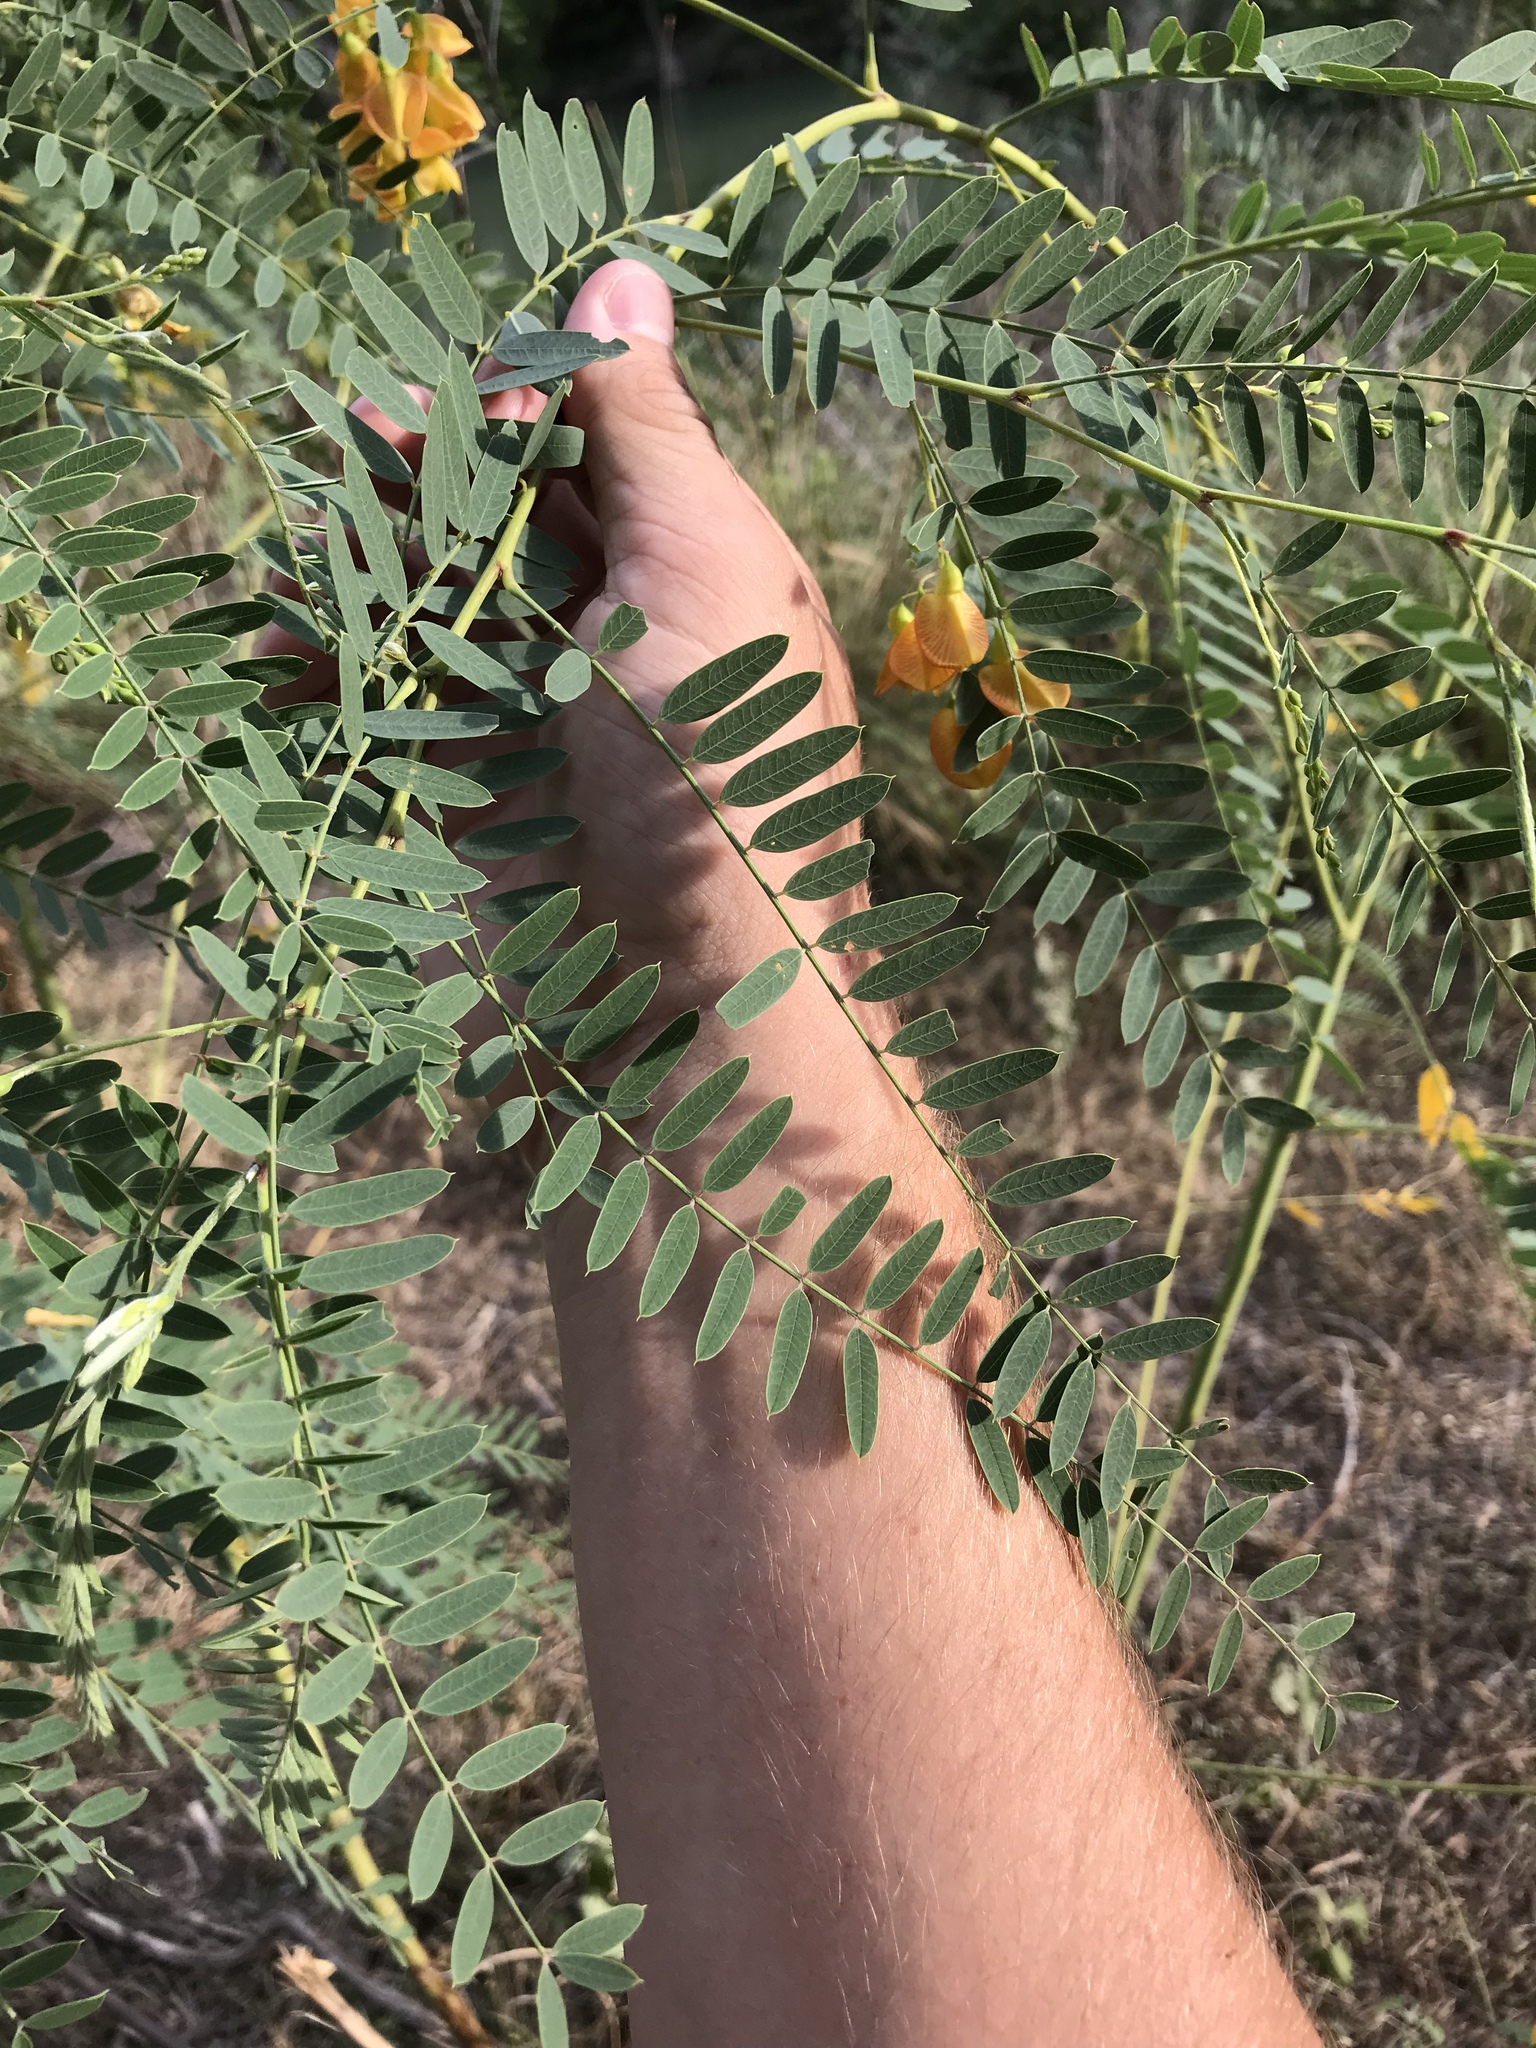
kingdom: Plantae
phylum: Tracheophyta
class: Magnoliopsida
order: Fabales
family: Fabaceae
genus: Sesbania
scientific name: Sesbania drummondii
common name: Poison-bean
